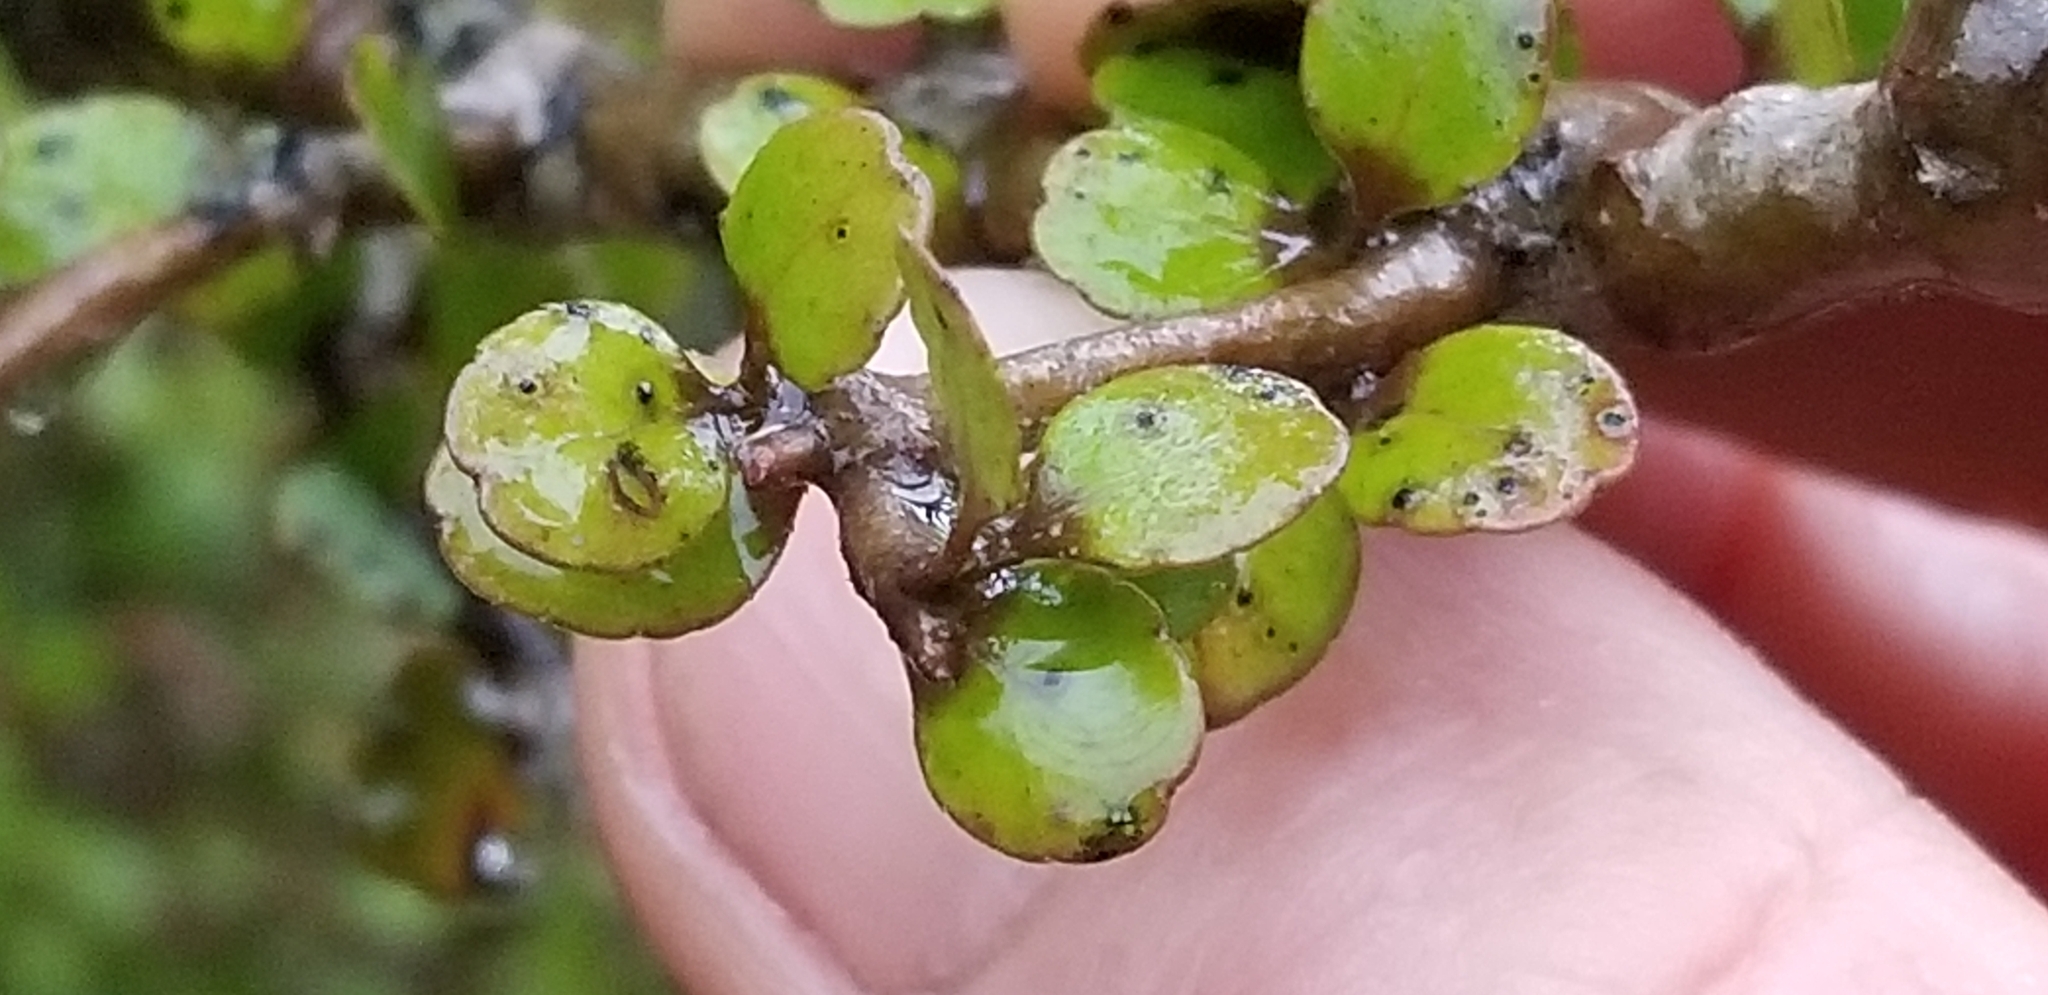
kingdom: Plantae
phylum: Tracheophyta
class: Magnoliopsida
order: Apiales
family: Araliaceae
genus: Raukaua
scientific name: Raukaua anomalus
